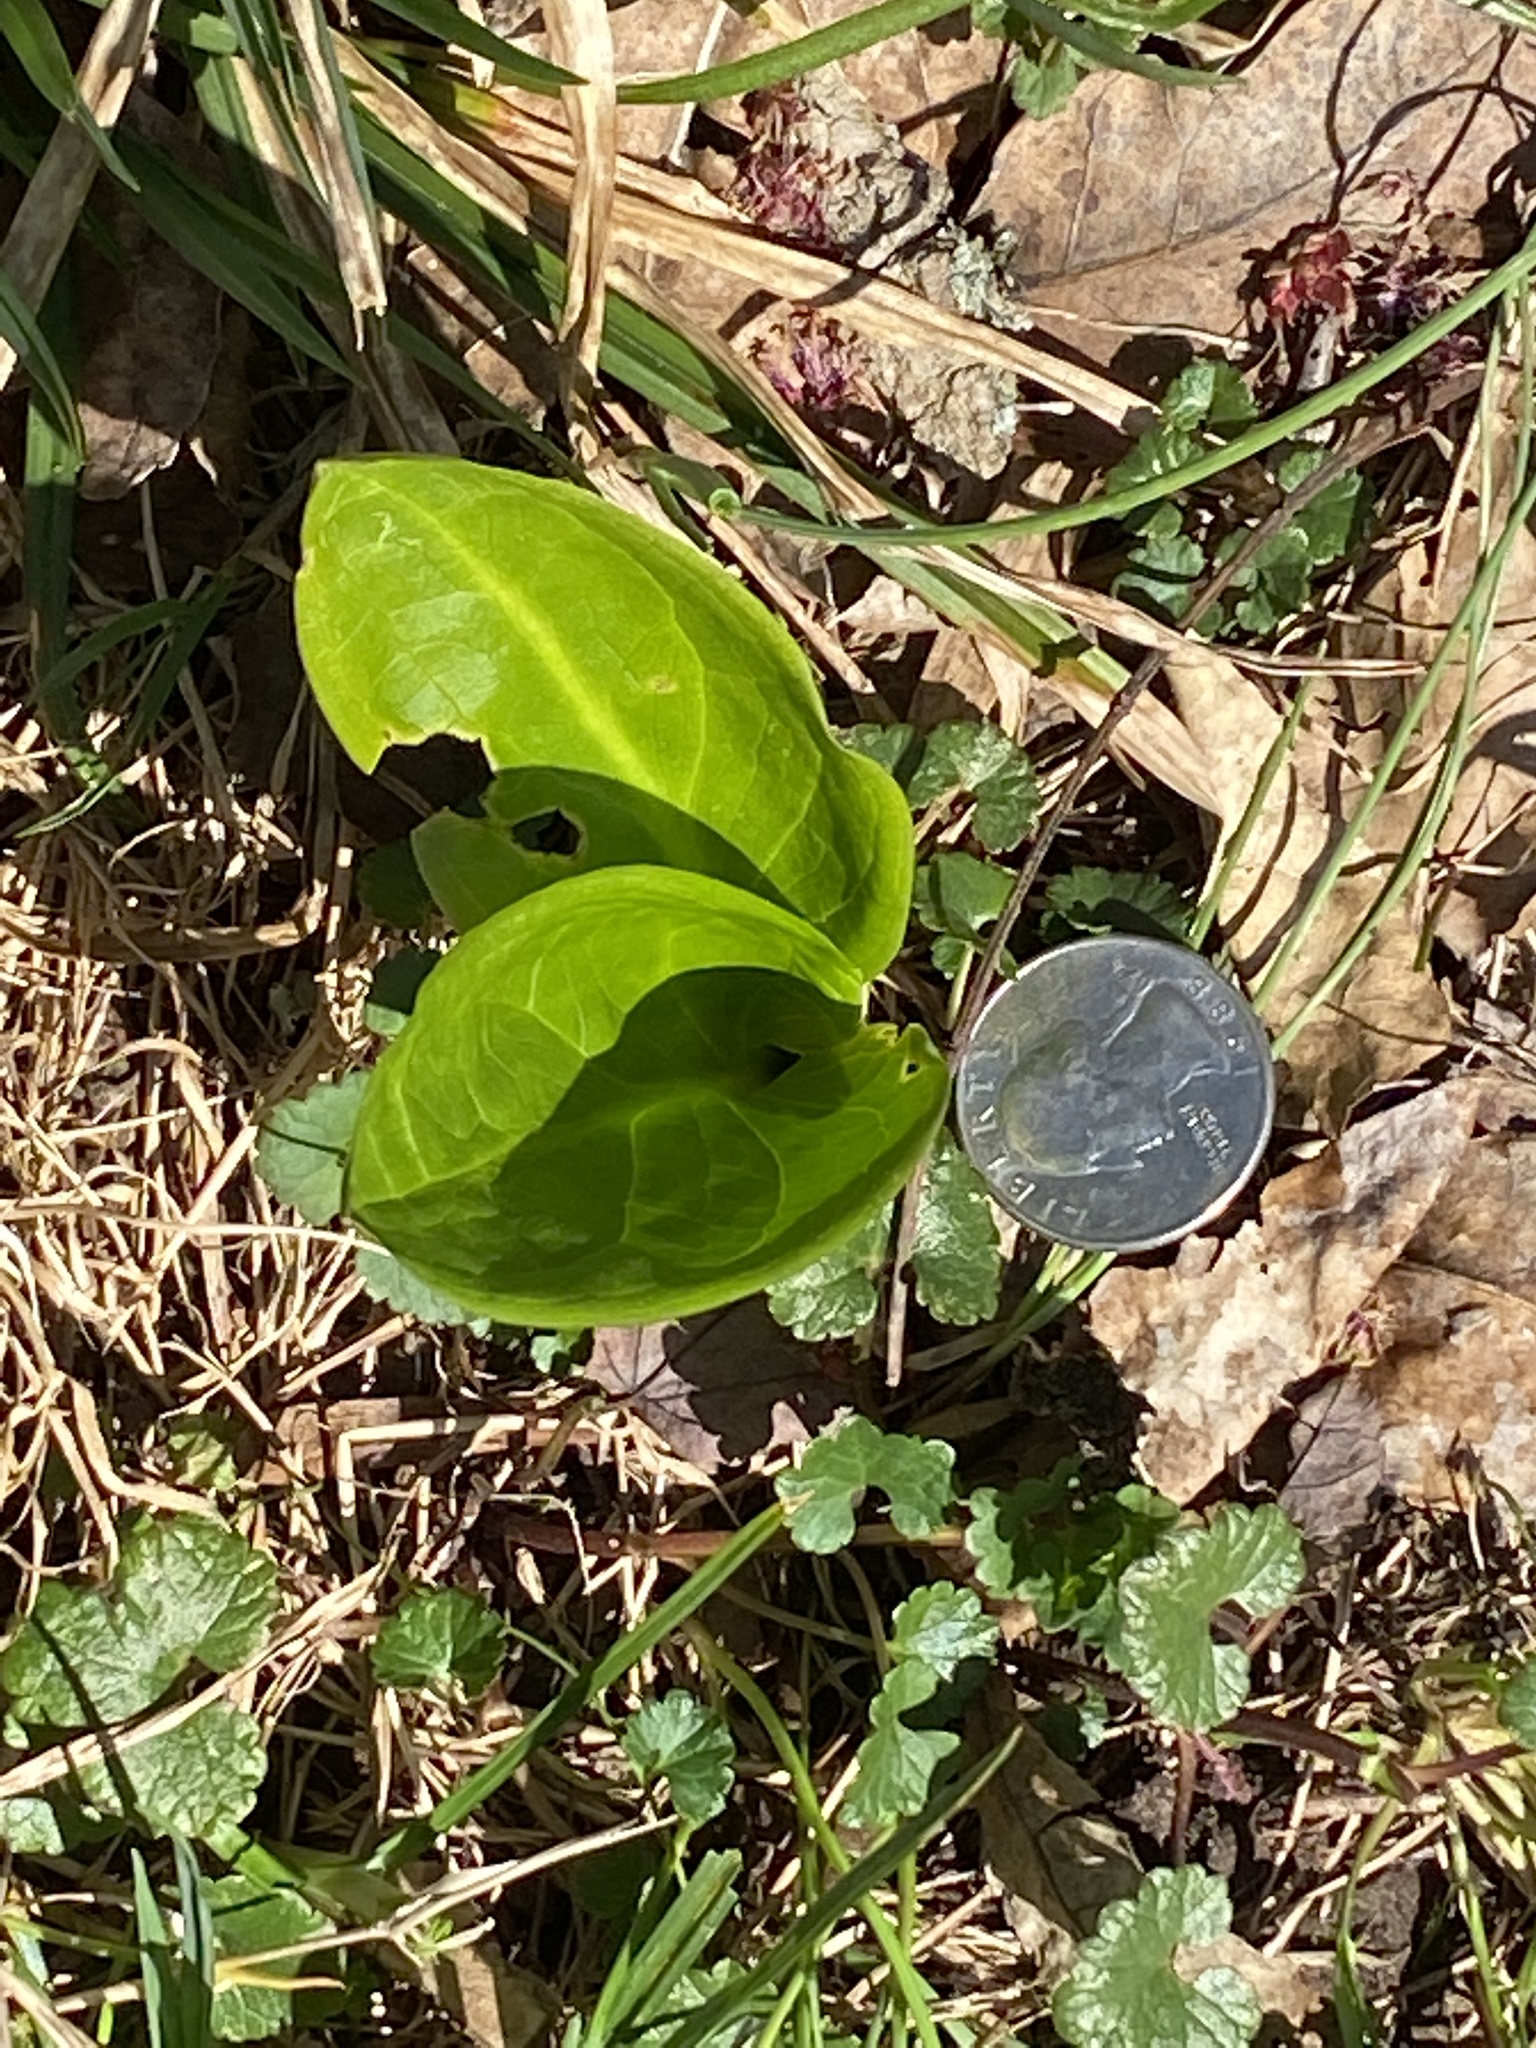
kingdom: Plantae
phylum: Tracheophyta
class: Liliopsida
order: Alismatales
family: Araceae
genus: Symplocarpus
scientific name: Symplocarpus foetidus
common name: Eastern skunk cabbage
